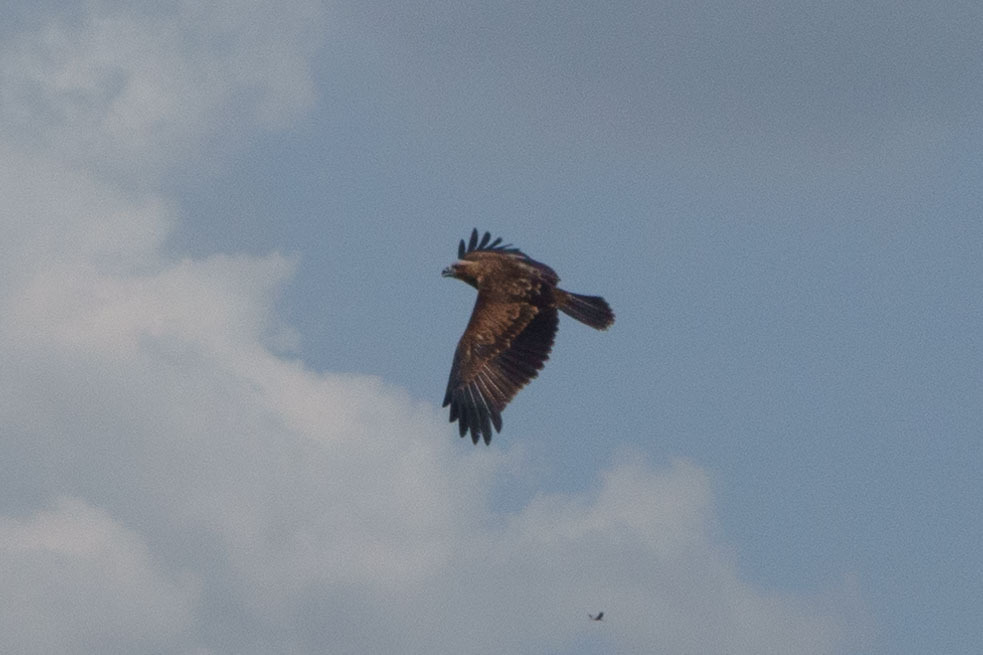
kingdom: Animalia
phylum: Chordata
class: Aves
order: Accipitriformes
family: Accipitridae
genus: Haliastur
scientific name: Haliastur indus
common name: Brahminy kite
